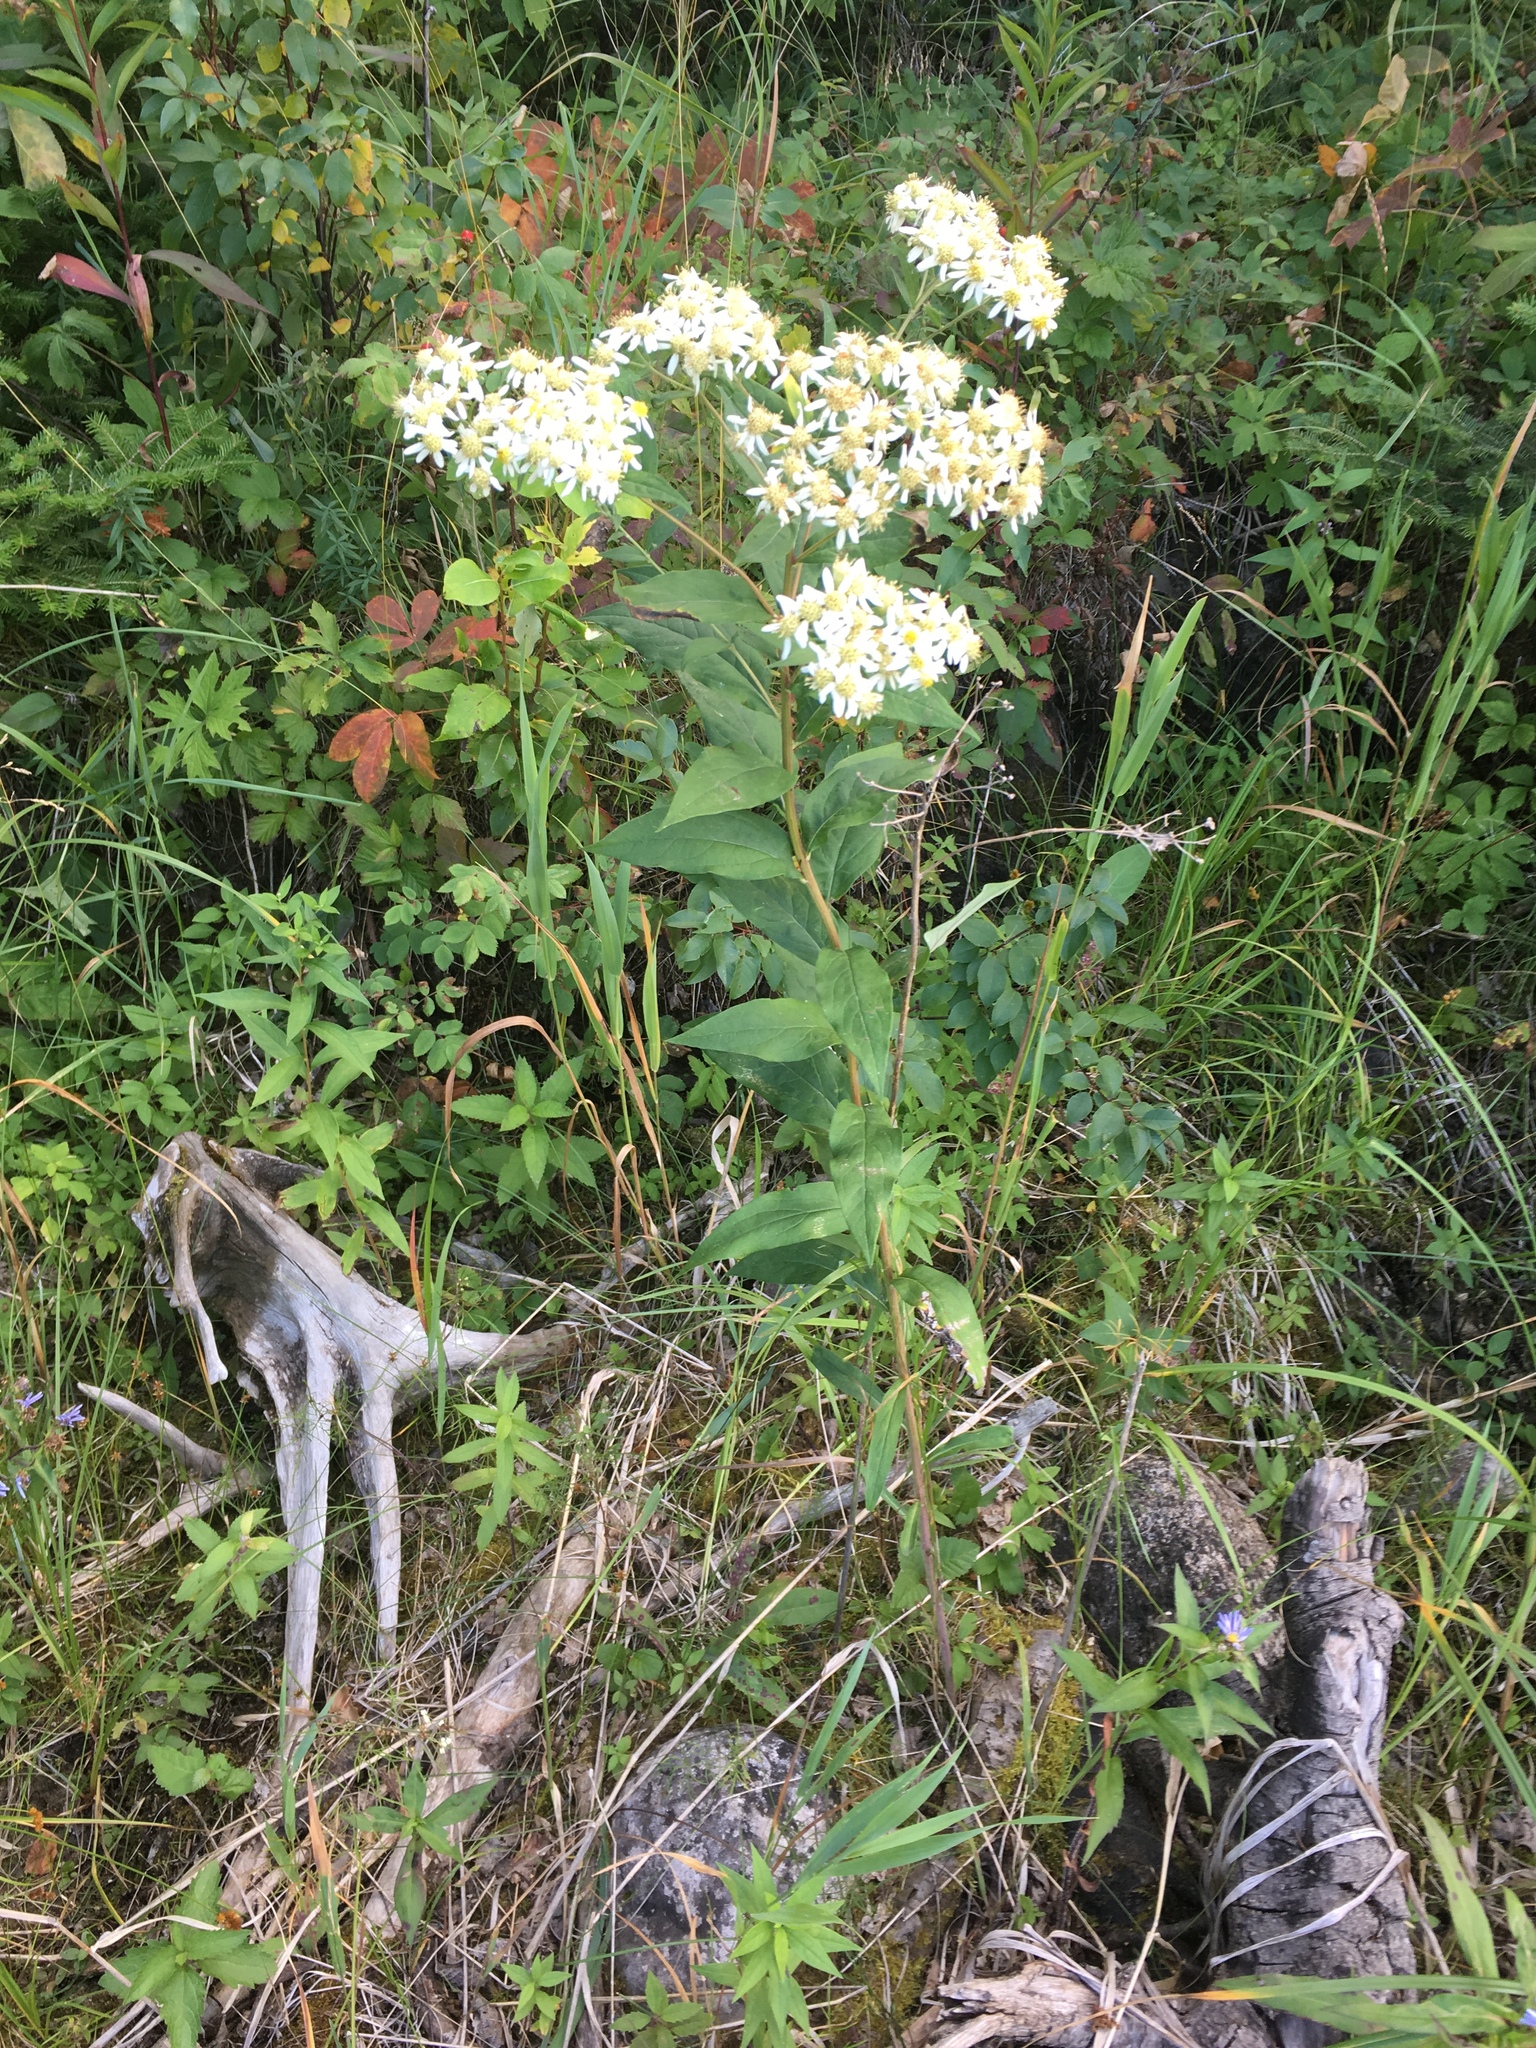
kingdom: Plantae
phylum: Tracheophyta
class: Magnoliopsida
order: Asterales
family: Asteraceae
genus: Doellingeria
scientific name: Doellingeria umbellata
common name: Flat-top white aster
